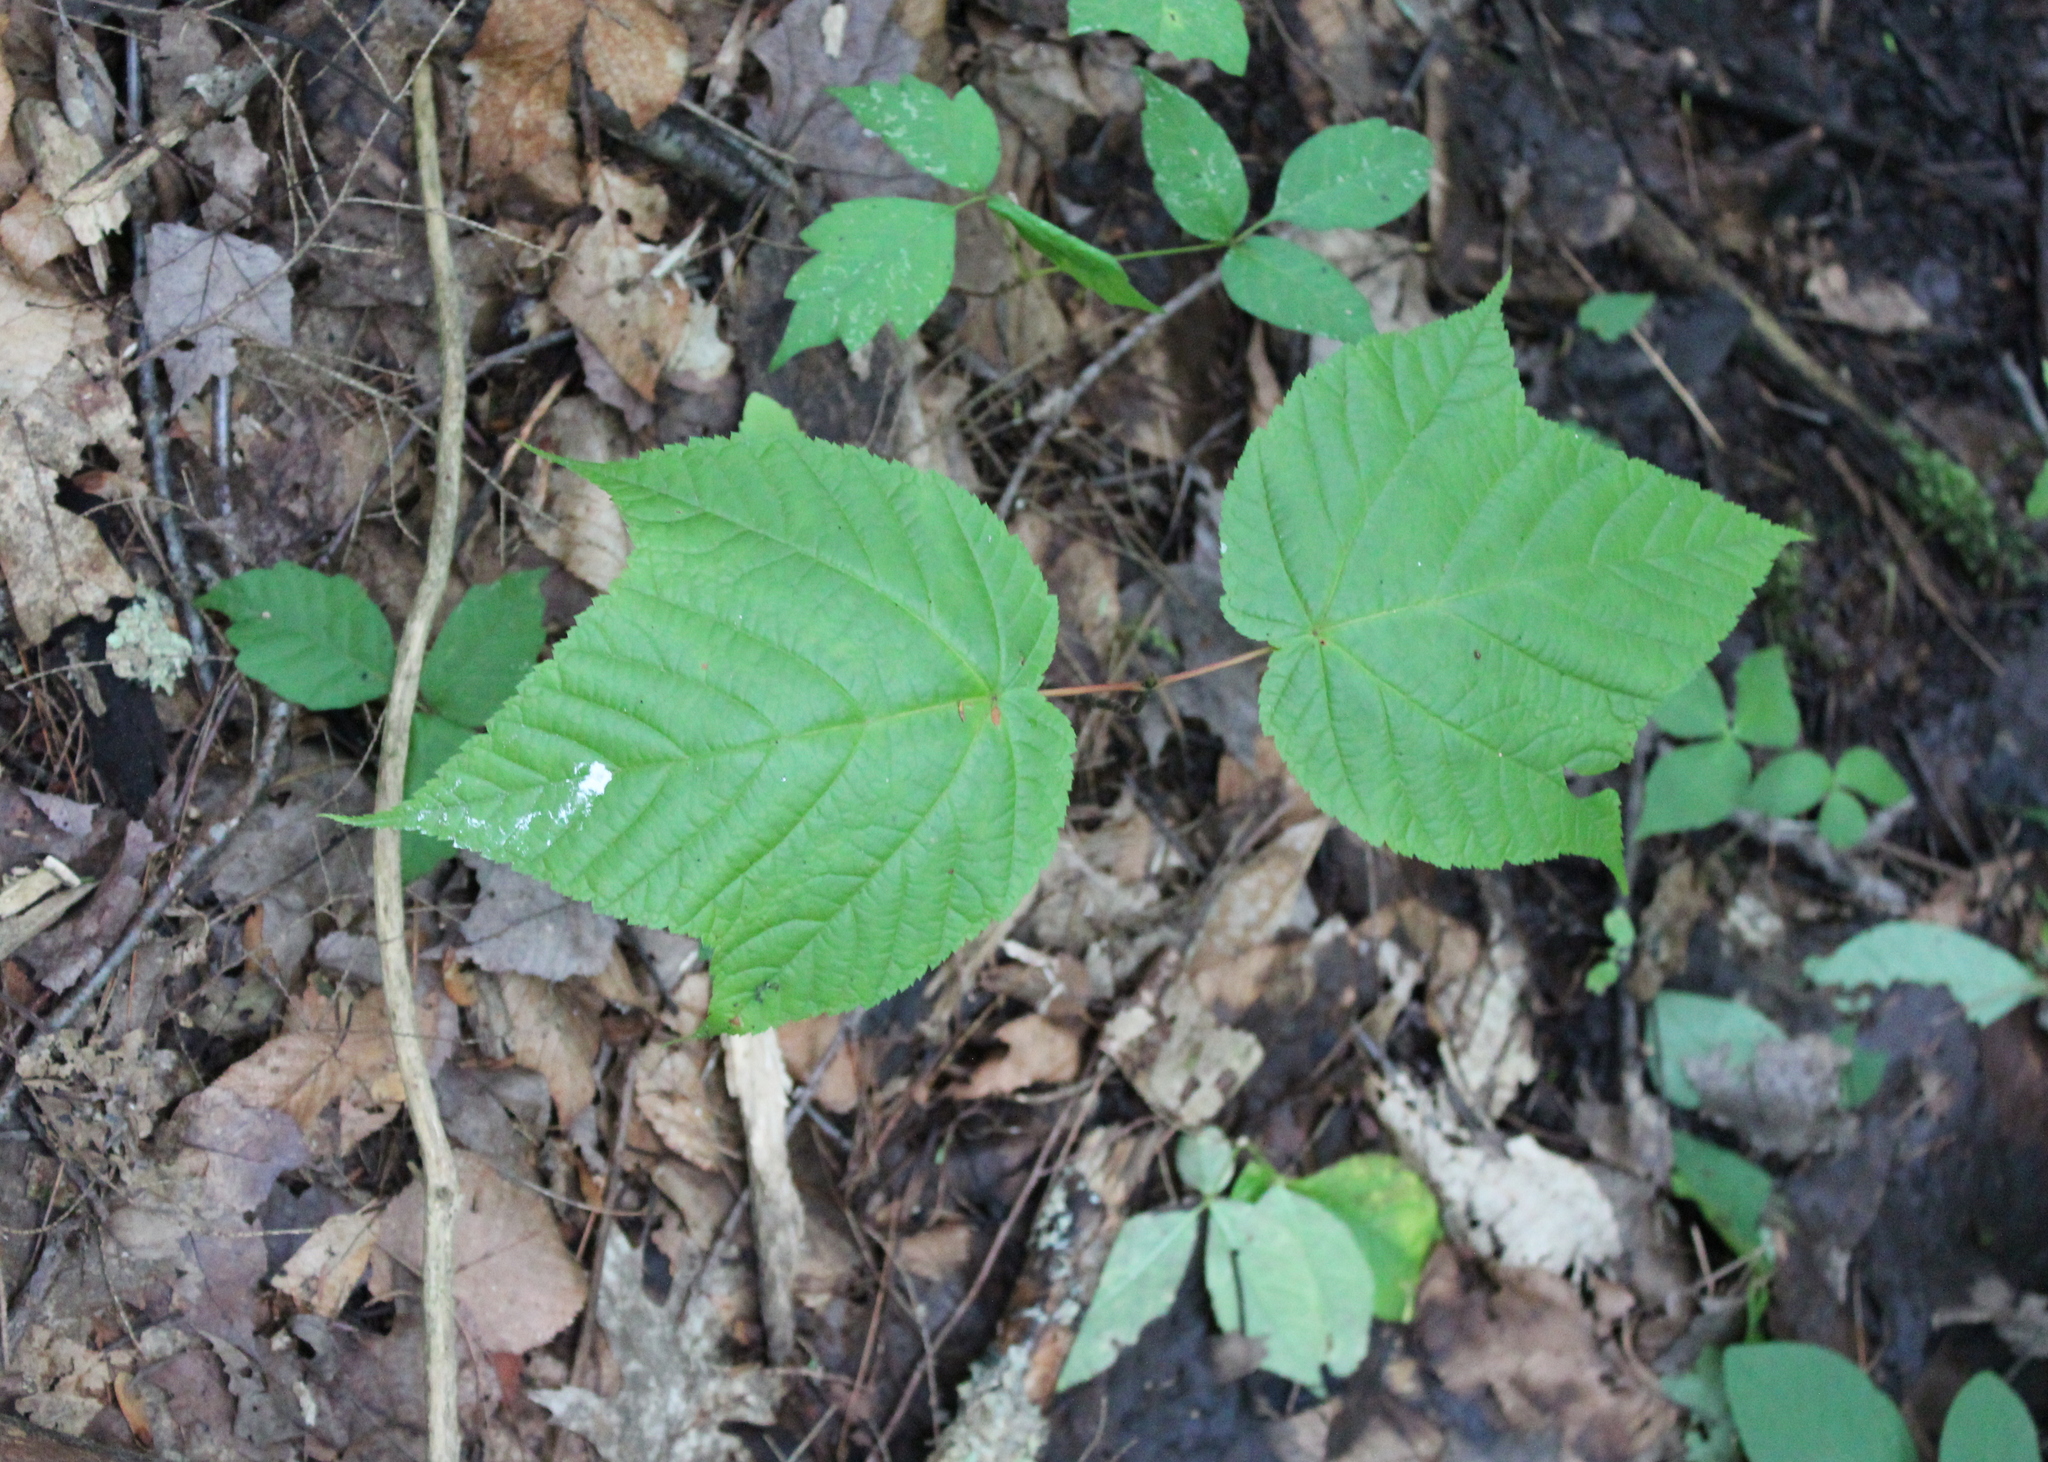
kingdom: Plantae
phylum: Tracheophyta
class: Magnoliopsida
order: Sapindales
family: Sapindaceae
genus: Acer
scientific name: Acer pensylvanicum
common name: Moosewood
